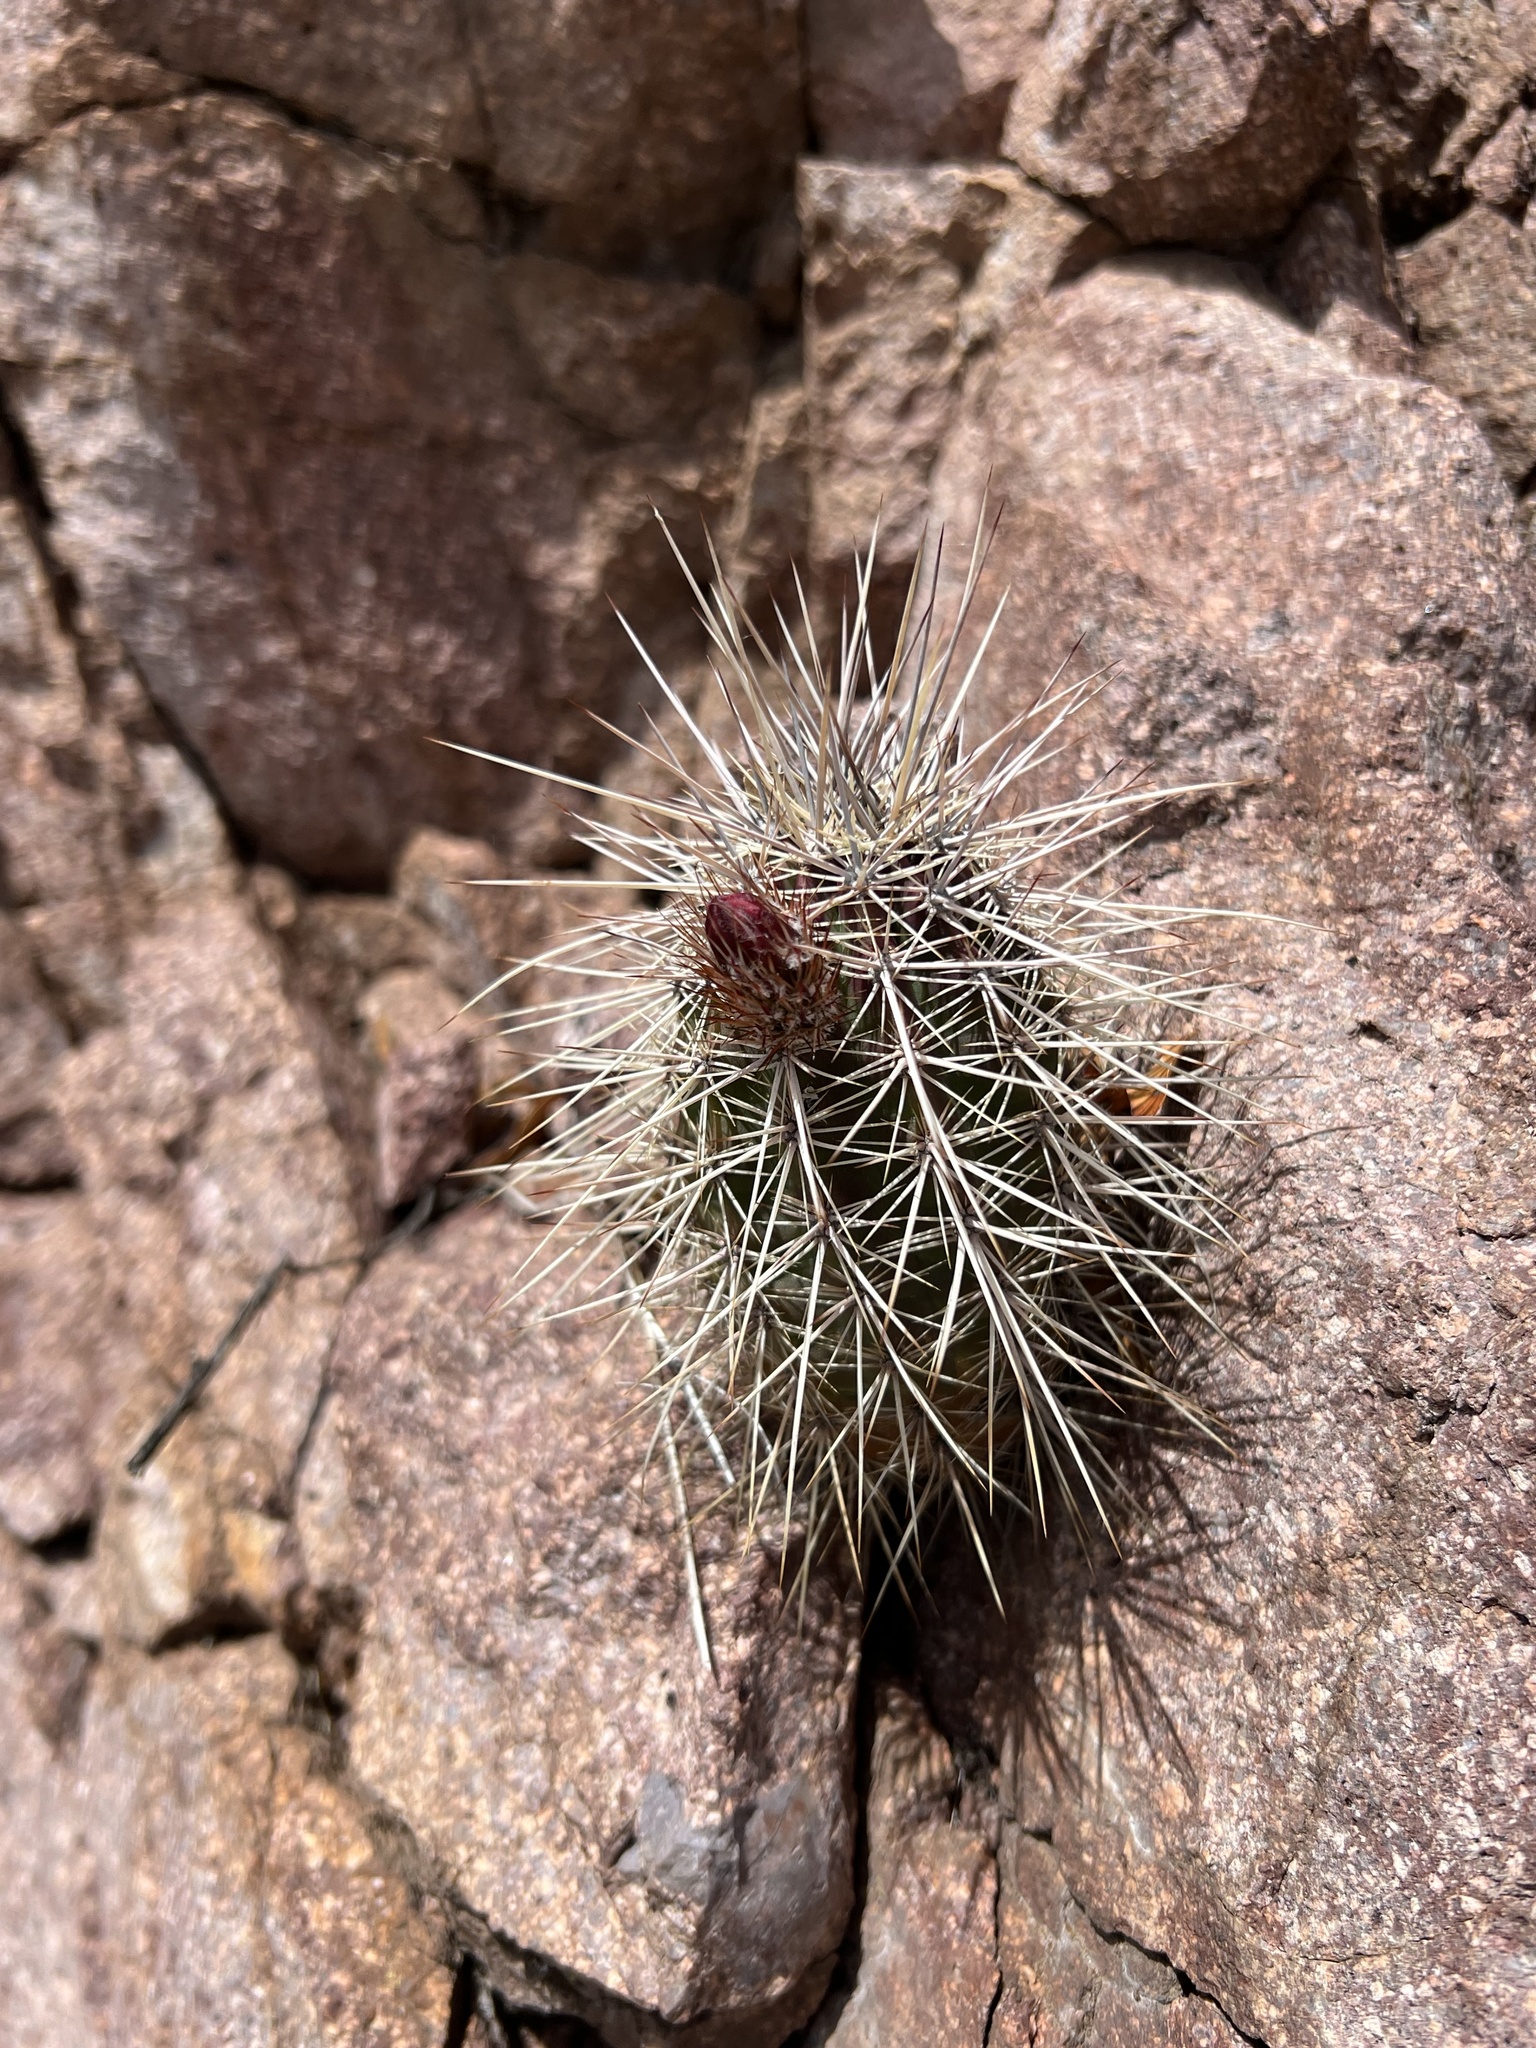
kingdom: Plantae
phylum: Tracheophyta
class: Magnoliopsida
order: Caryophyllales
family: Cactaceae
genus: Echinocereus
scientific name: Echinocereus coccineus
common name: Scarlet hedgehog cactus
